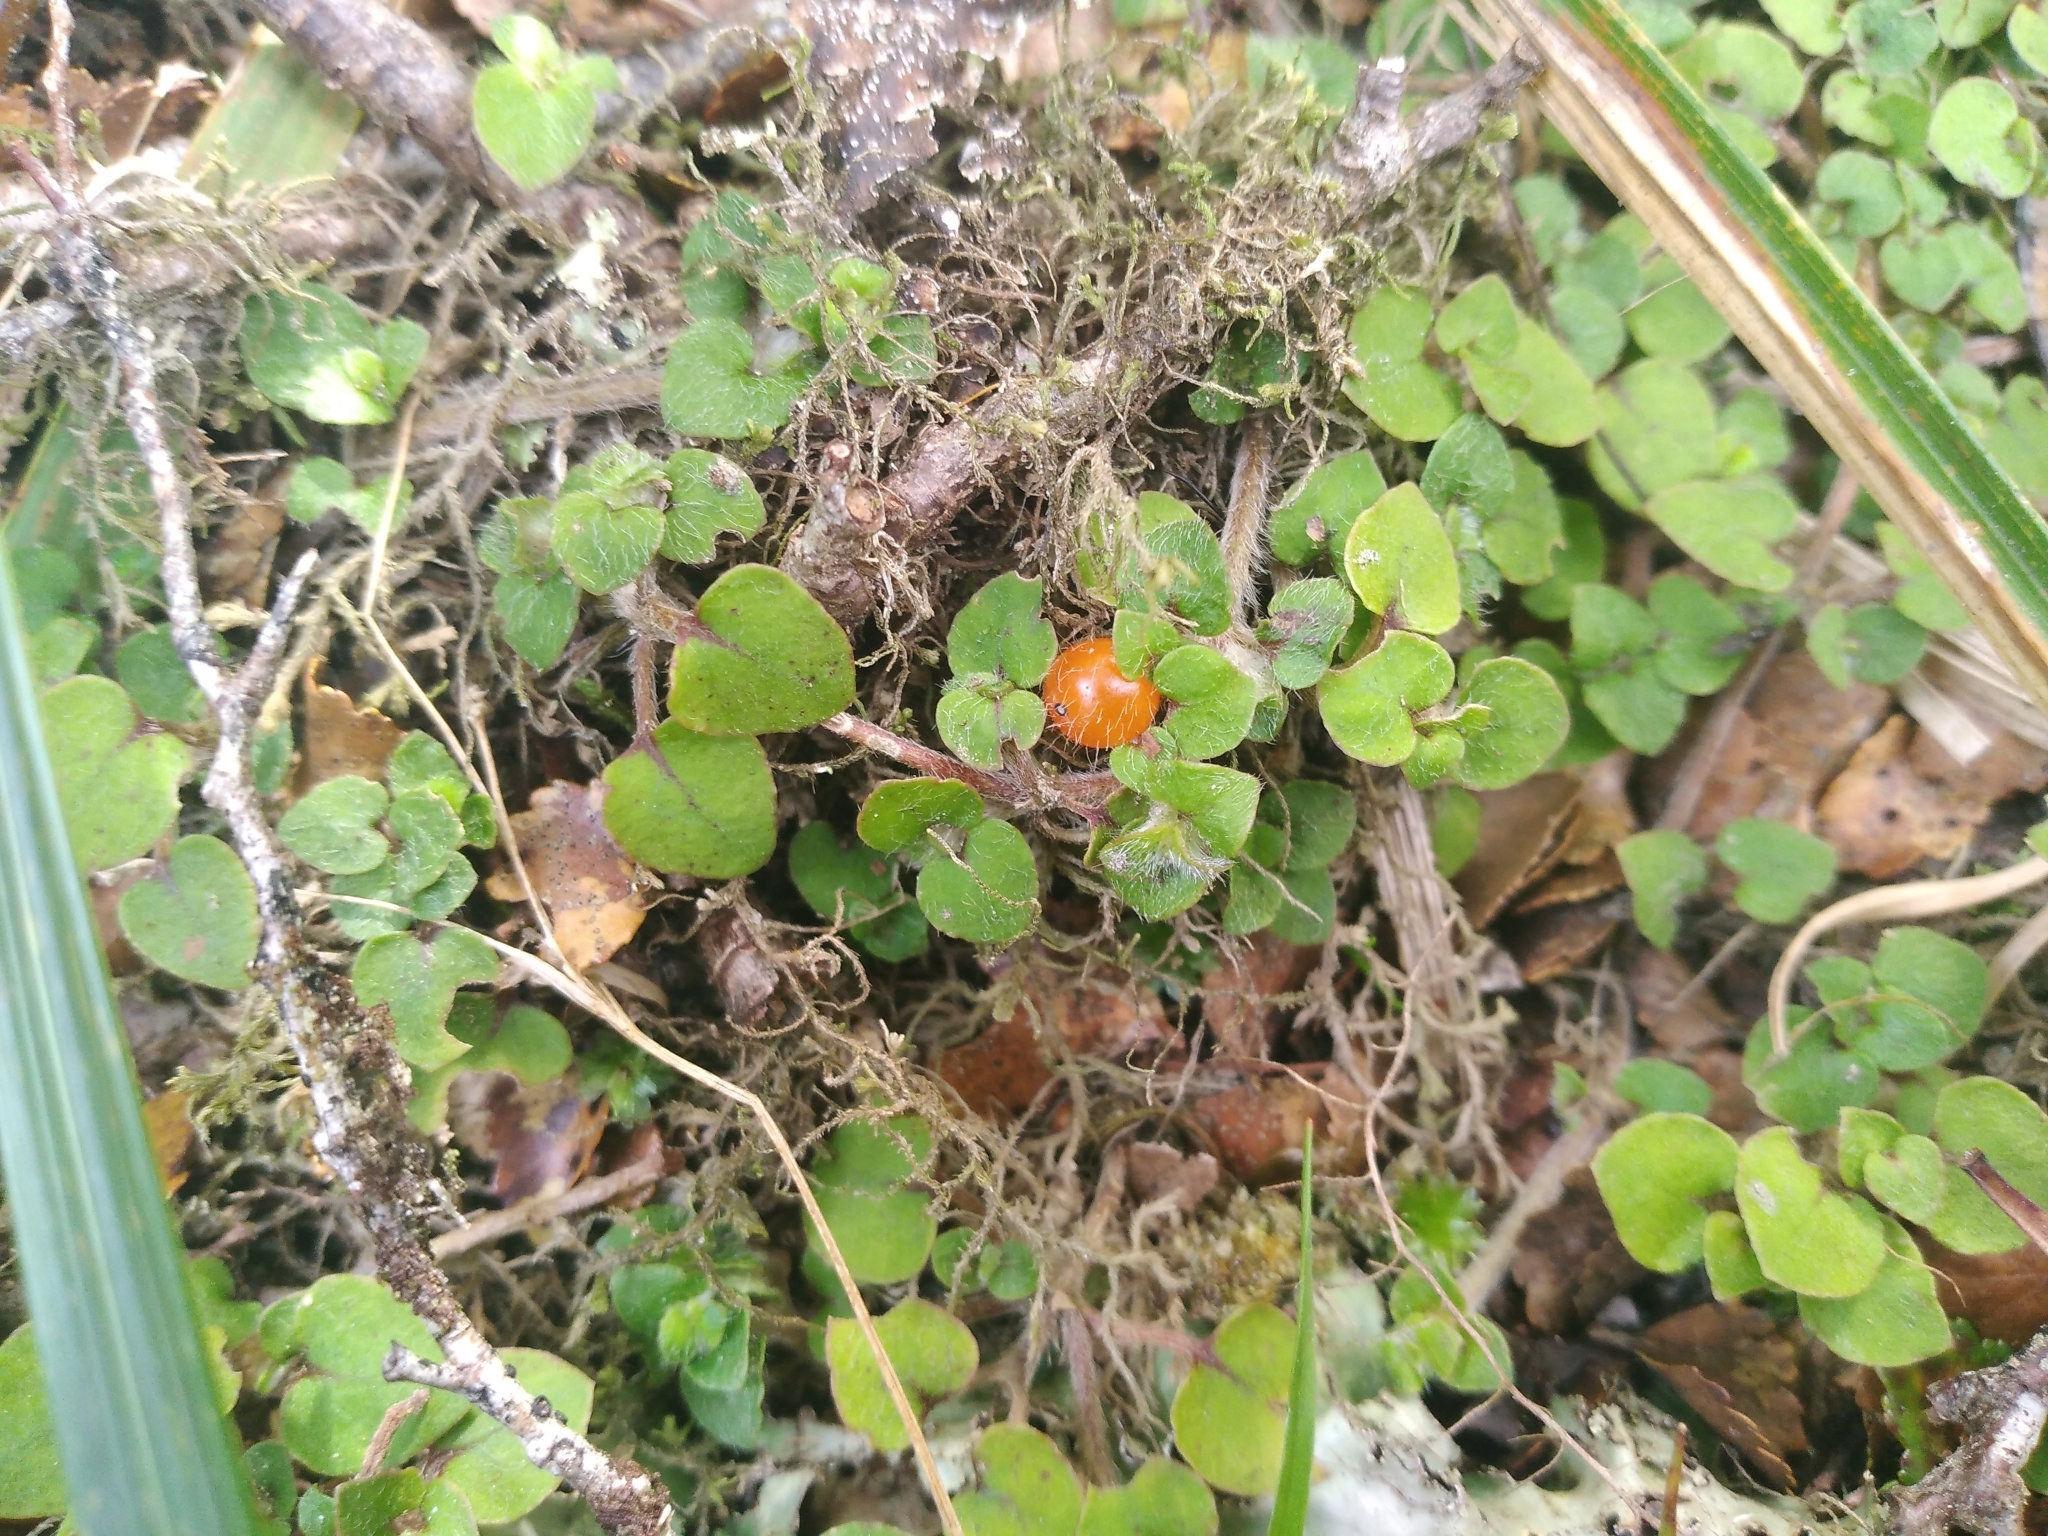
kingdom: Plantae
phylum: Tracheophyta
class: Magnoliopsida
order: Gentianales
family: Rubiaceae
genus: Nertera
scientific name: Nertera villosa
